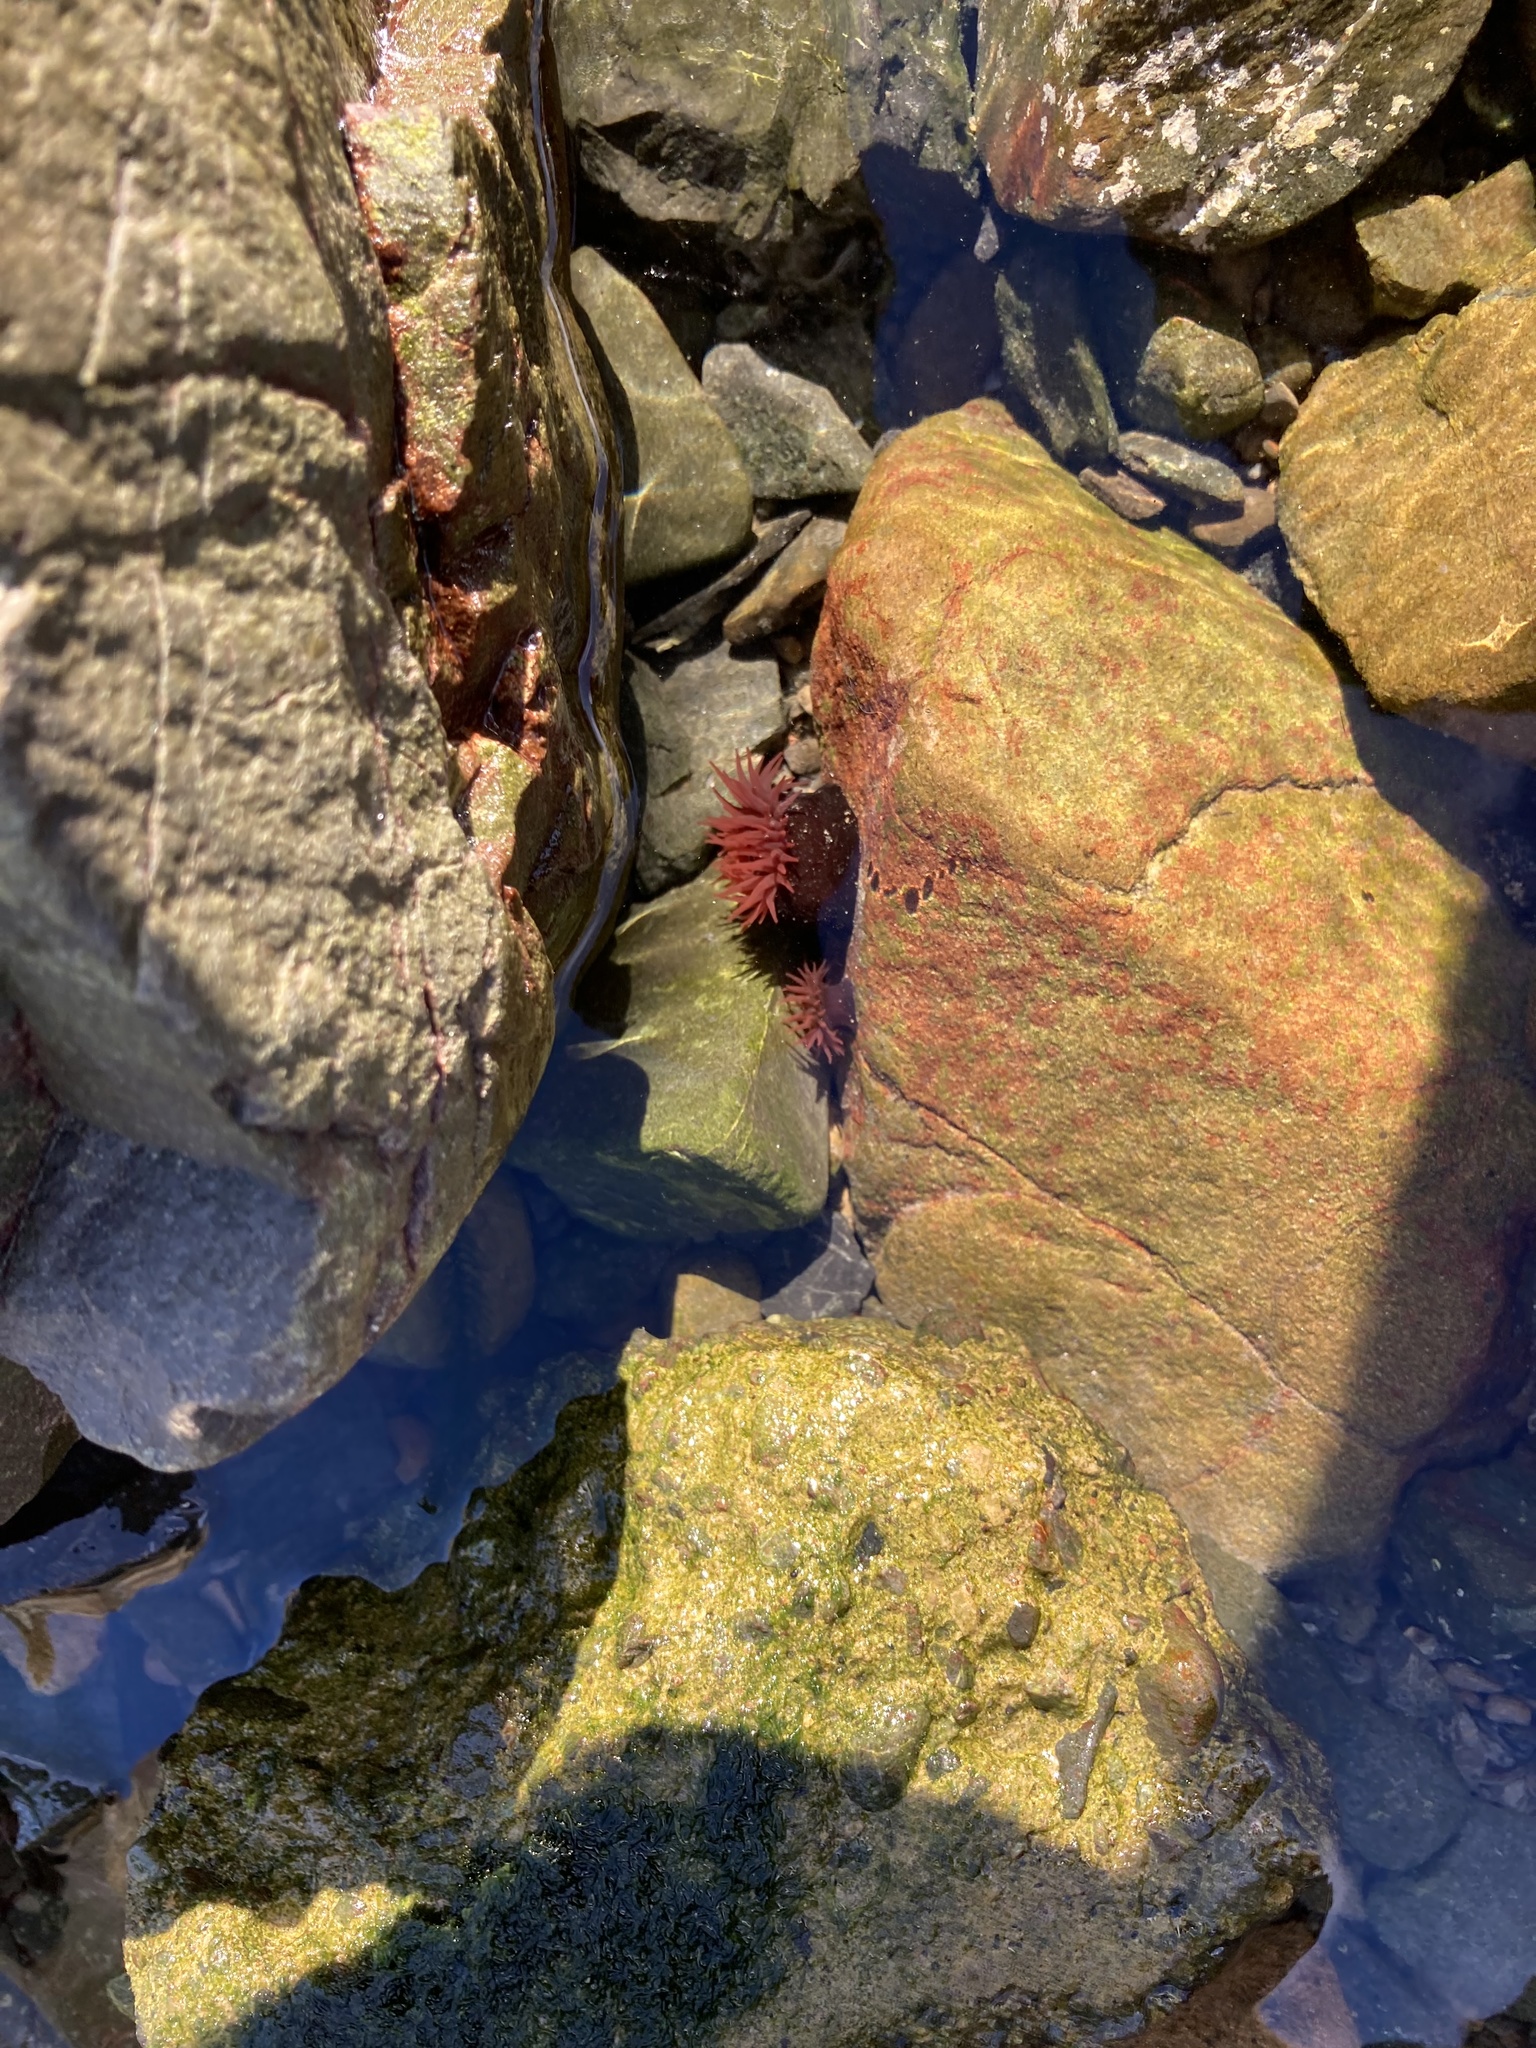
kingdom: Animalia
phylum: Cnidaria
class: Anthozoa
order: Actiniaria
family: Actiniidae
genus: Actinia
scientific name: Actinia tenebrosa
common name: Waratah anemone
